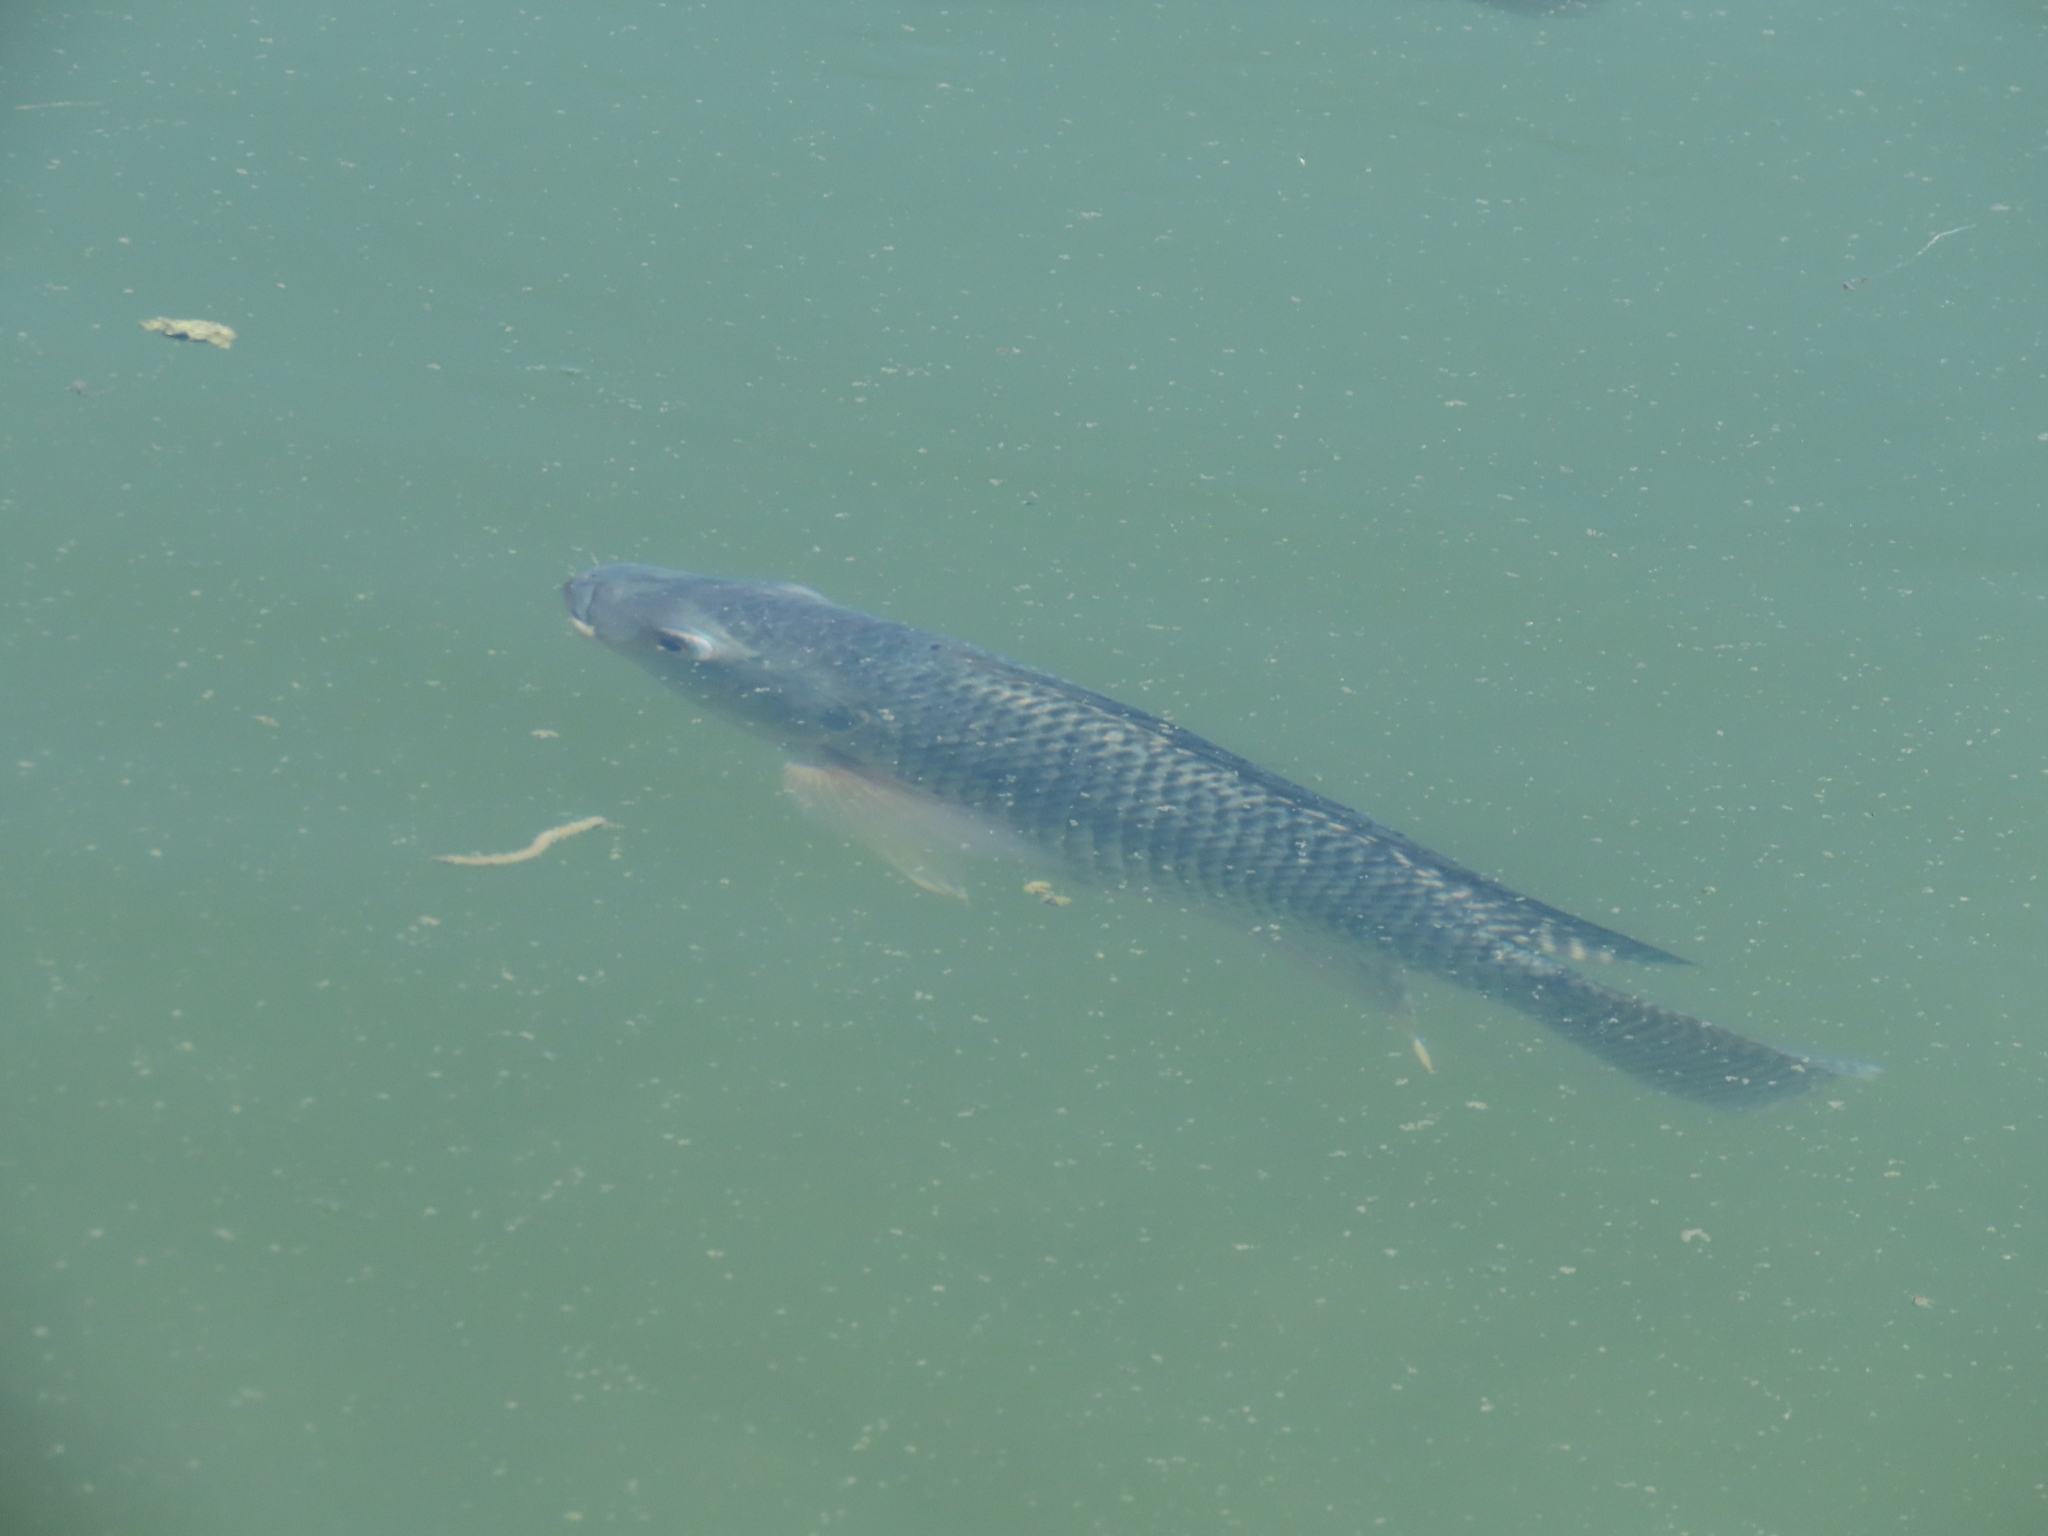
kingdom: Animalia
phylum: Chordata
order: Perciformes
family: Cichlidae
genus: Oreochromis
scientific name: Oreochromis niloticus
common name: Nile tilapia
